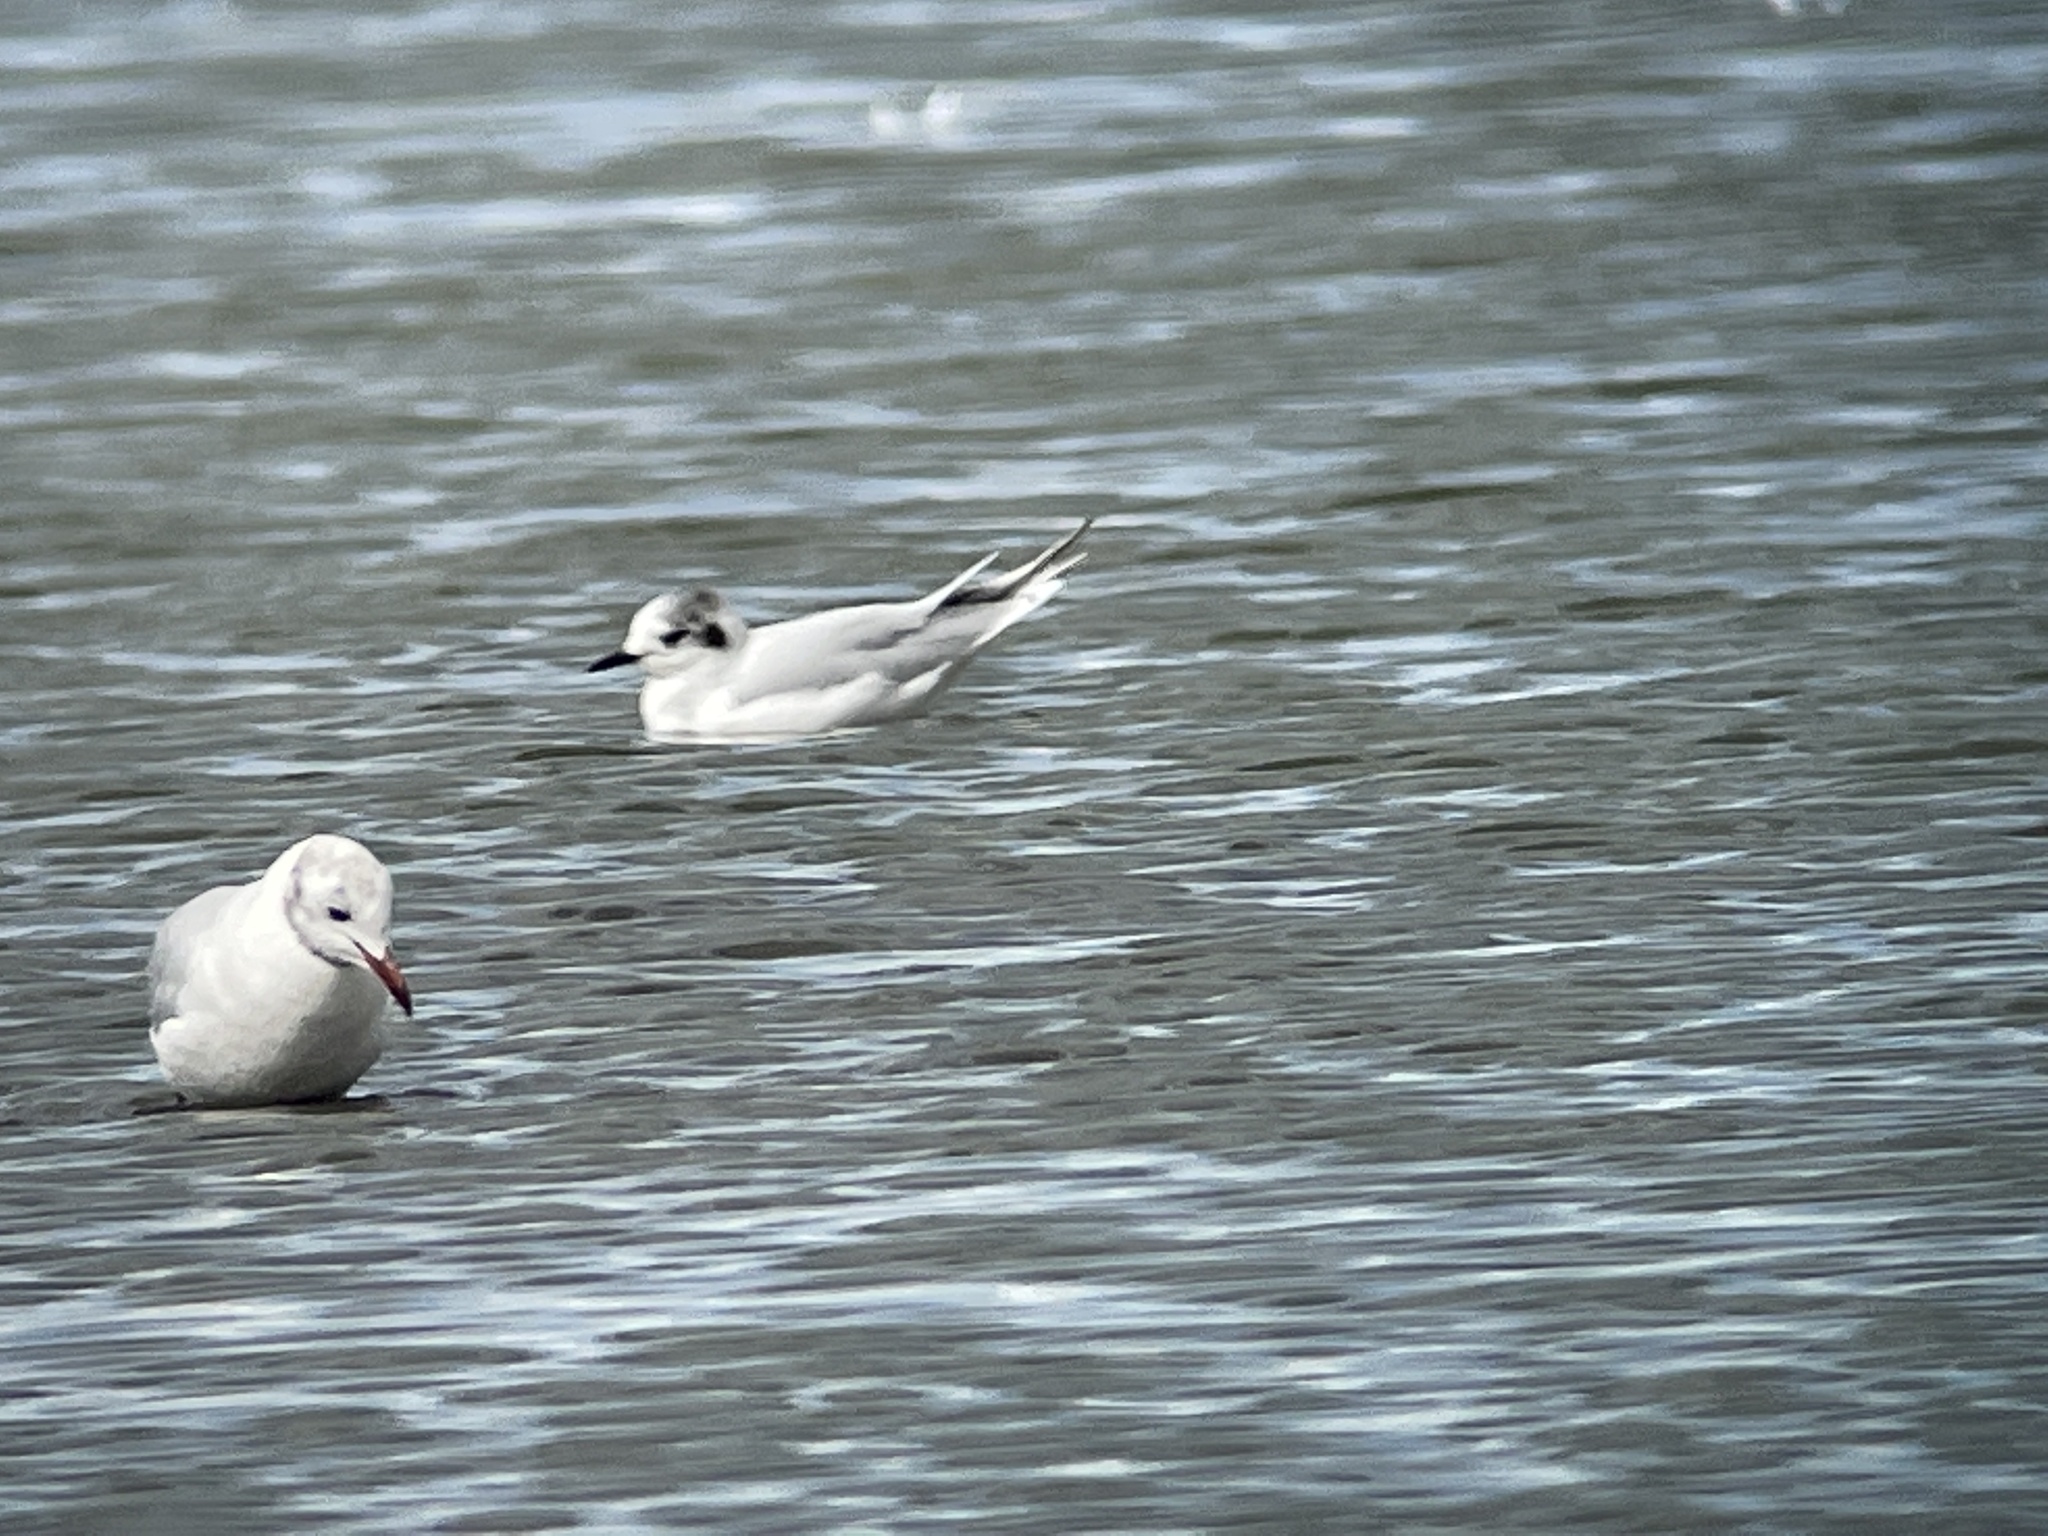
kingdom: Animalia
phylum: Chordata
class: Aves
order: Charadriiformes
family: Laridae
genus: Hydrocoloeus
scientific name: Hydrocoloeus minutus
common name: Little gull
